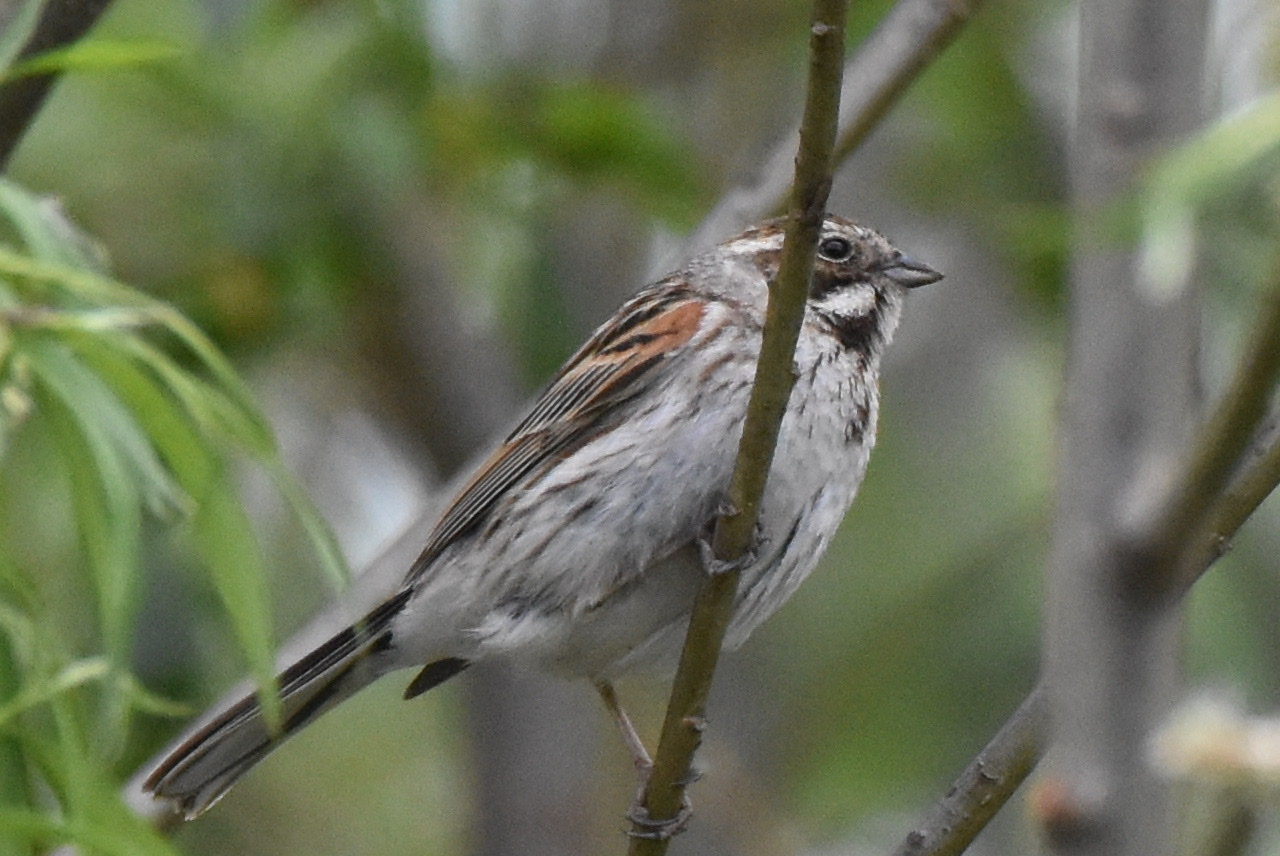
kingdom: Animalia
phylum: Chordata
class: Aves
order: Passeriformes
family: Emberizidae
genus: Emberiza
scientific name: Emberiza schoeniclus
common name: Reed bunting
